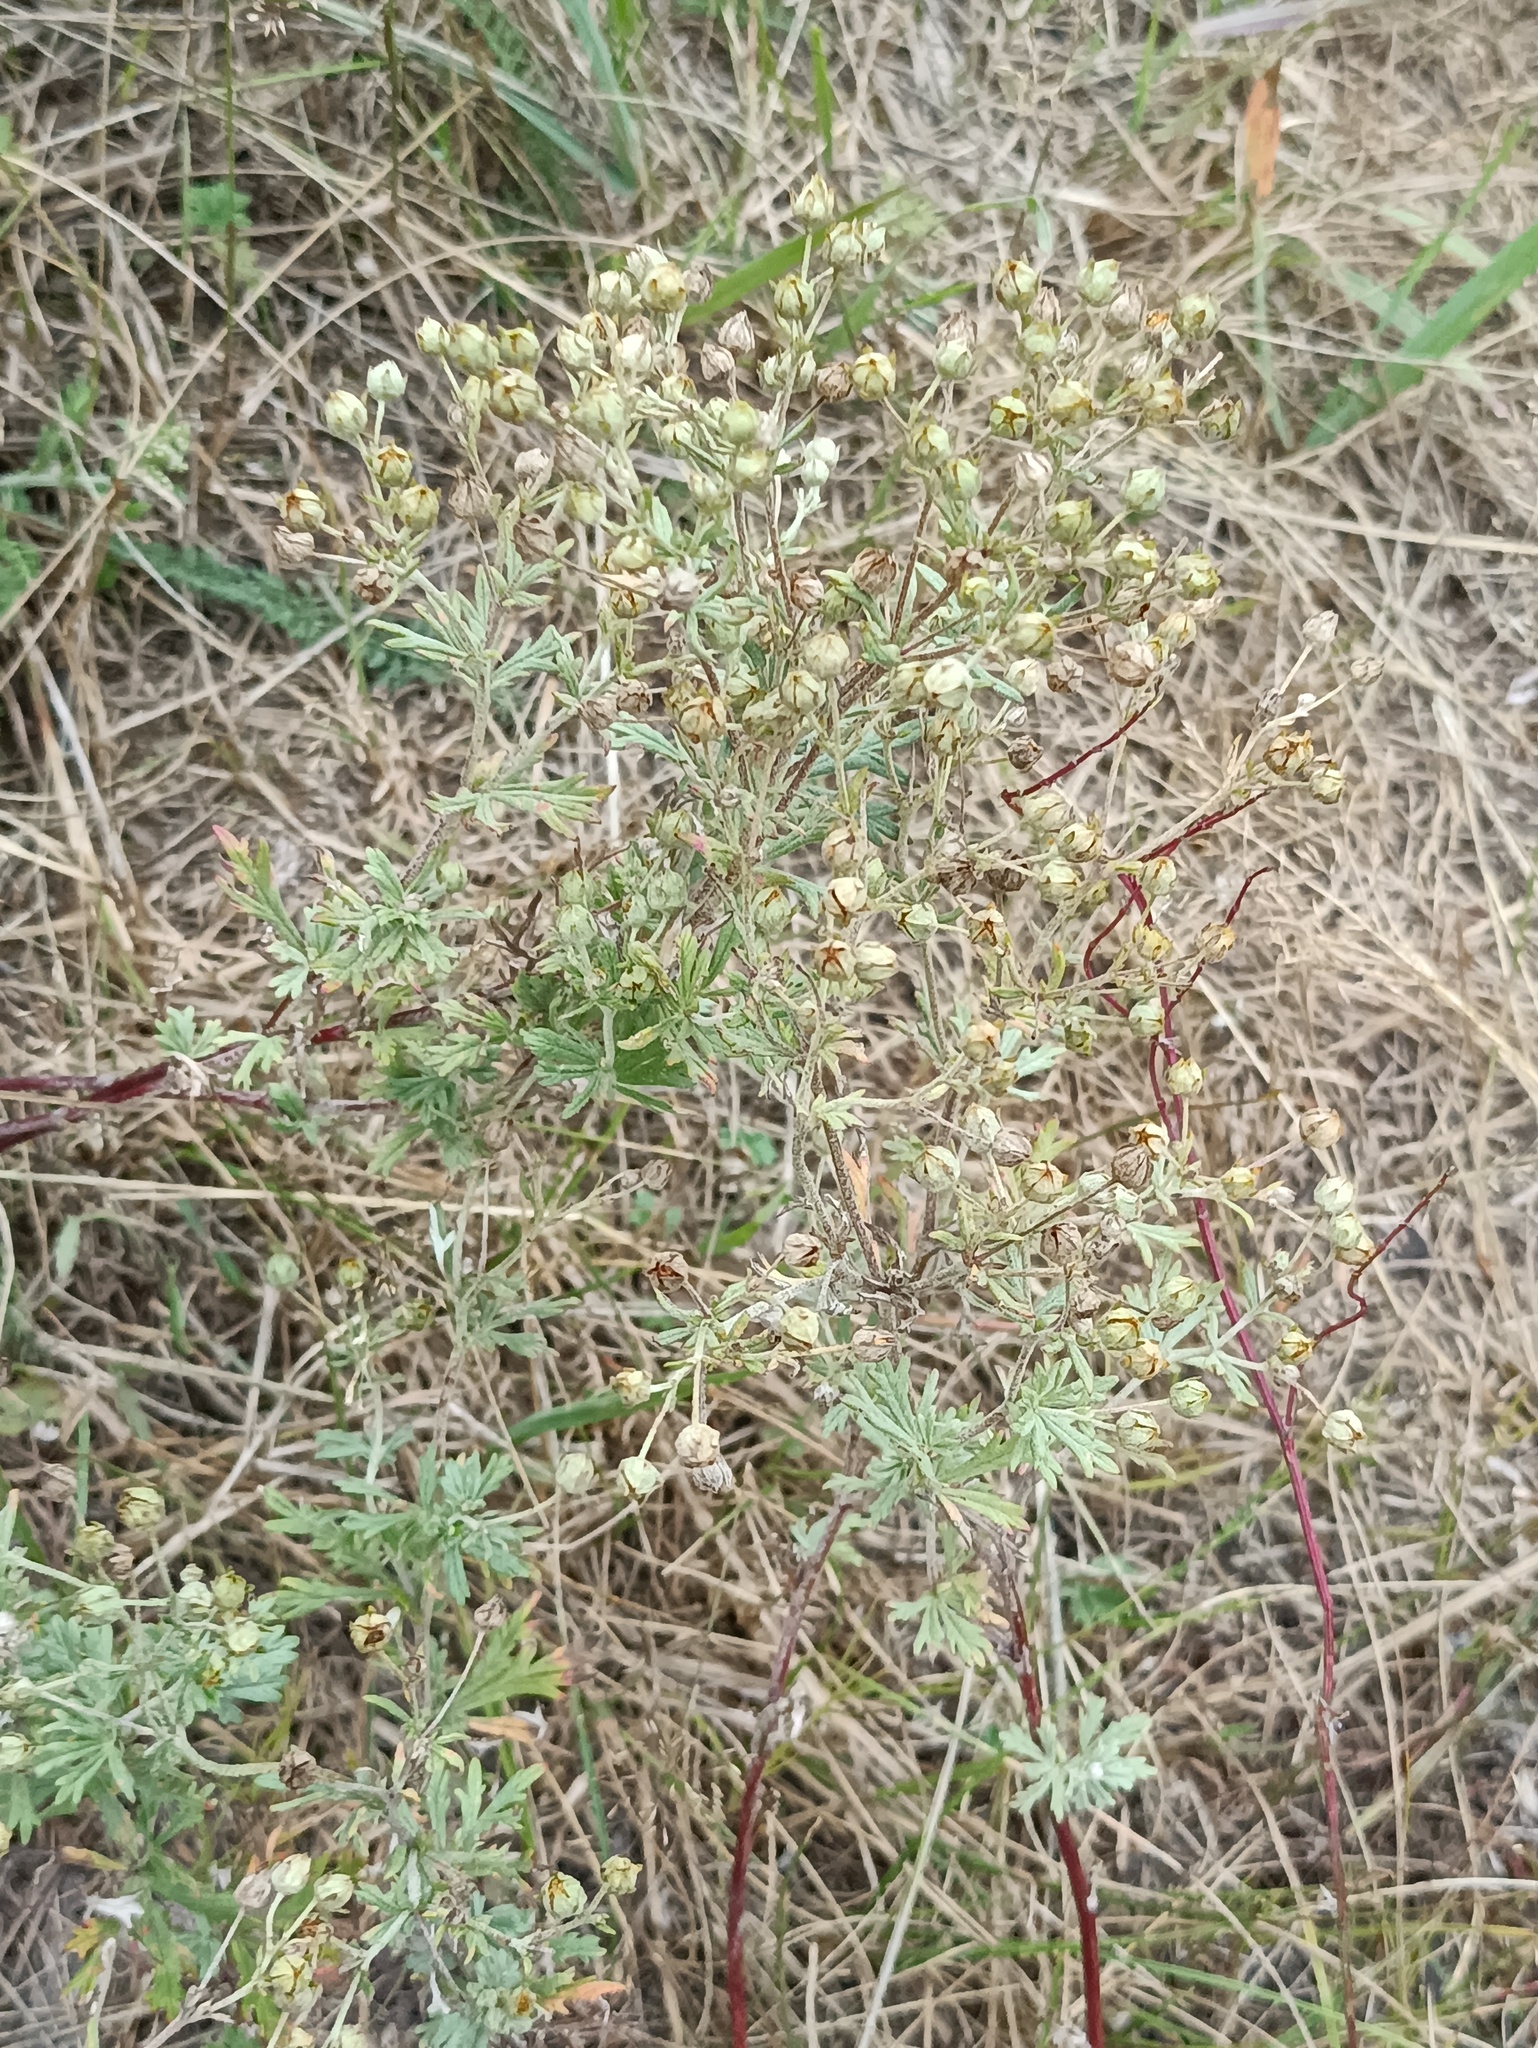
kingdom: Plantae
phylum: Tracheophyta
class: Magnoliopsida
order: Rosales
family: Rosaceae
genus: Potentilla
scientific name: Potentilla argentea
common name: Hoary cinquefoil
